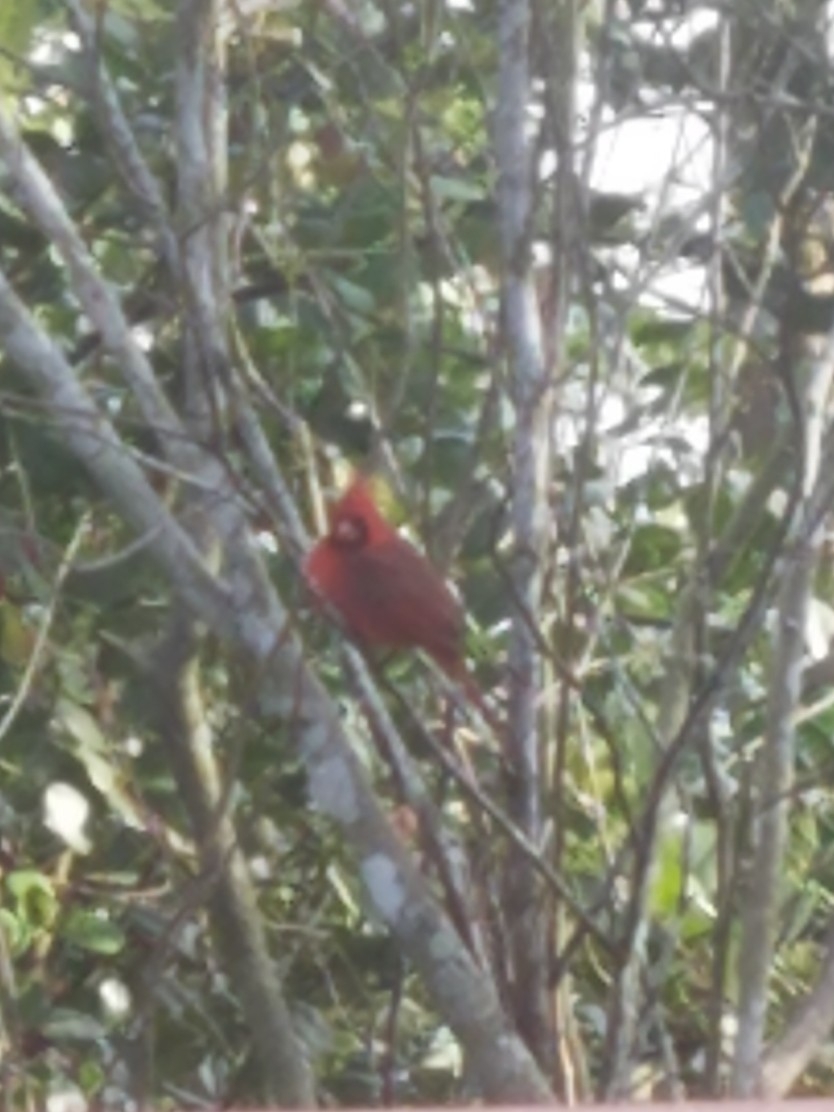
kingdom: Animalia
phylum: Chordata
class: Aves
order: Passeriformes
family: Cardinalidae
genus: Cardinalis
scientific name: Cardinalis cardinalis
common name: Northern cardinal
